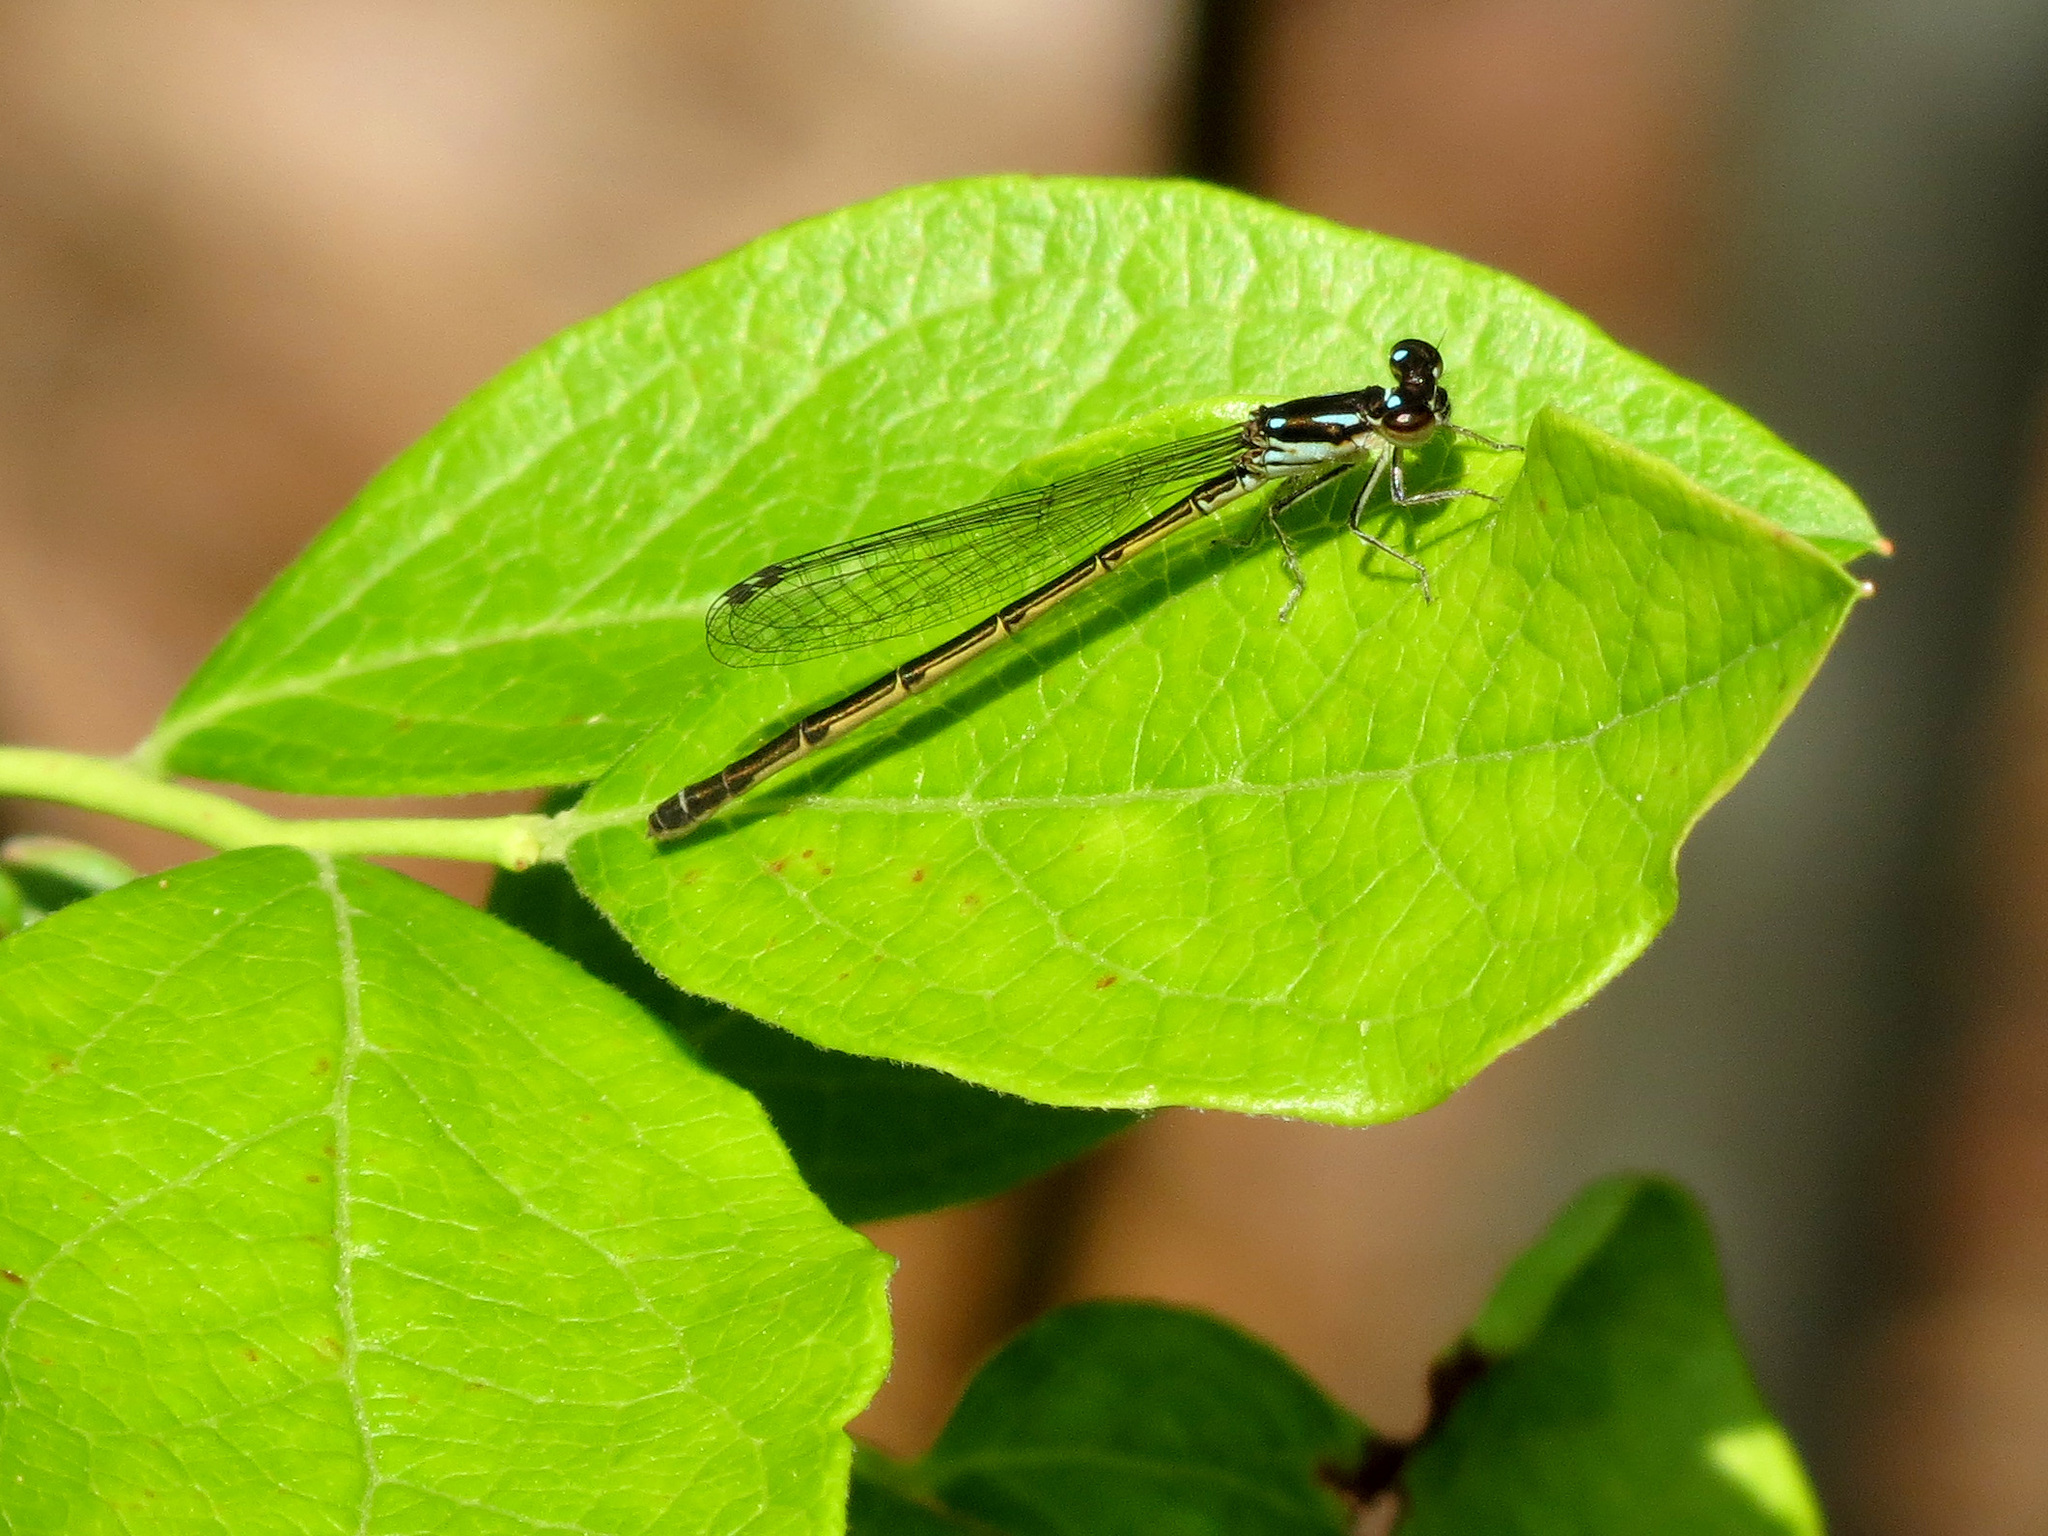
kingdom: Animalia
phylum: Arthropoda
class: Insecta
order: Odonata
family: Coenagrionidae
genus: Ischnura
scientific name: Ischnura posita
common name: Fragile forktail
